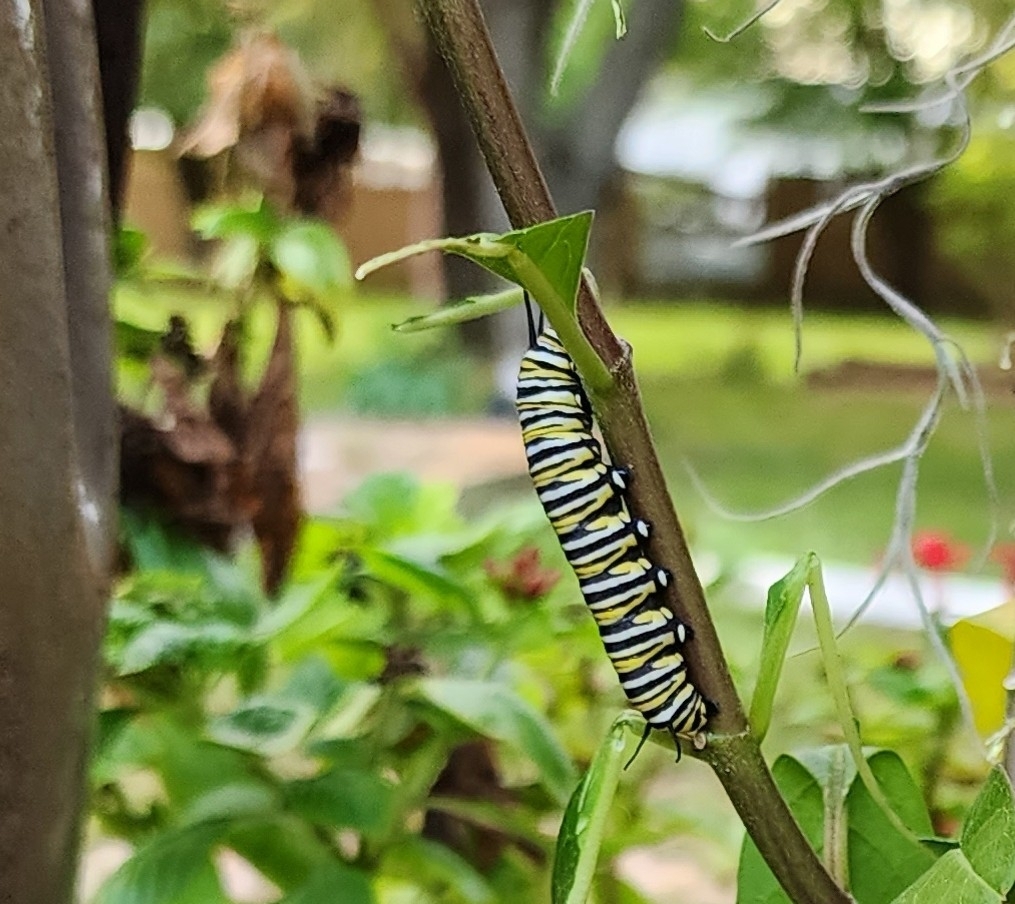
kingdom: Animalia
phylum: Arthropoda
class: Insecta
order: Lepidoptera
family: Nymphalidae
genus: Danaus
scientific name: Danaus plexippus
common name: Monarch
